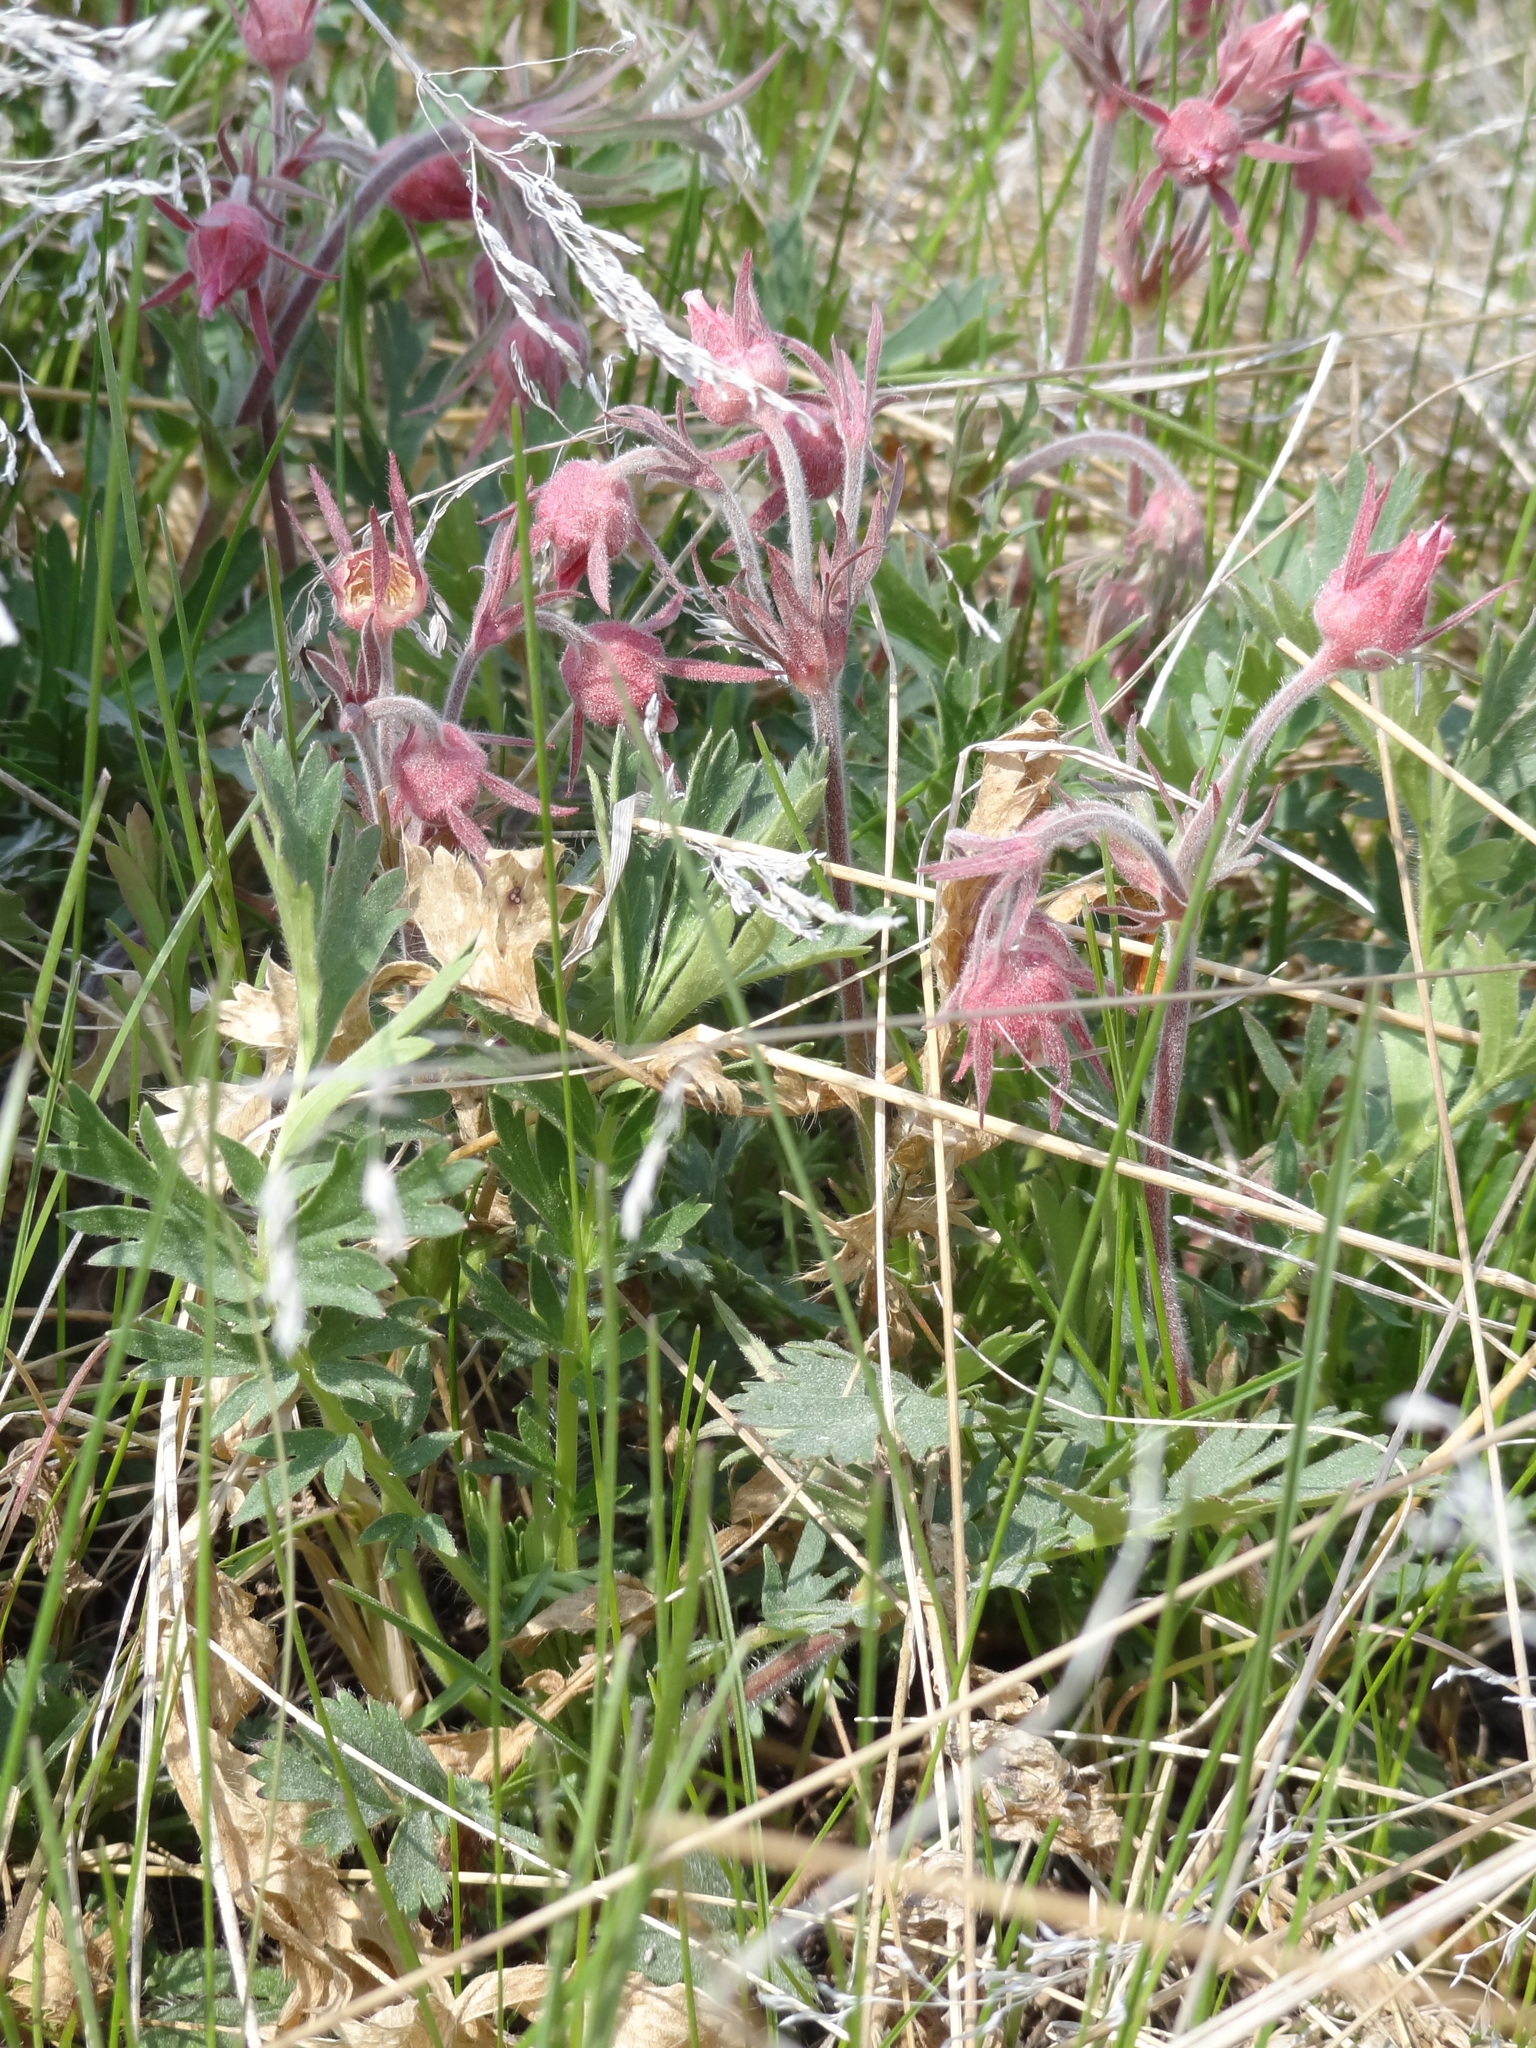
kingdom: Plantae
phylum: Tracheophyta
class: Magnoliopsida
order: Rosales
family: Rosaceae
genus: Geum
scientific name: Geum triflorum
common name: Old man's whiskers
